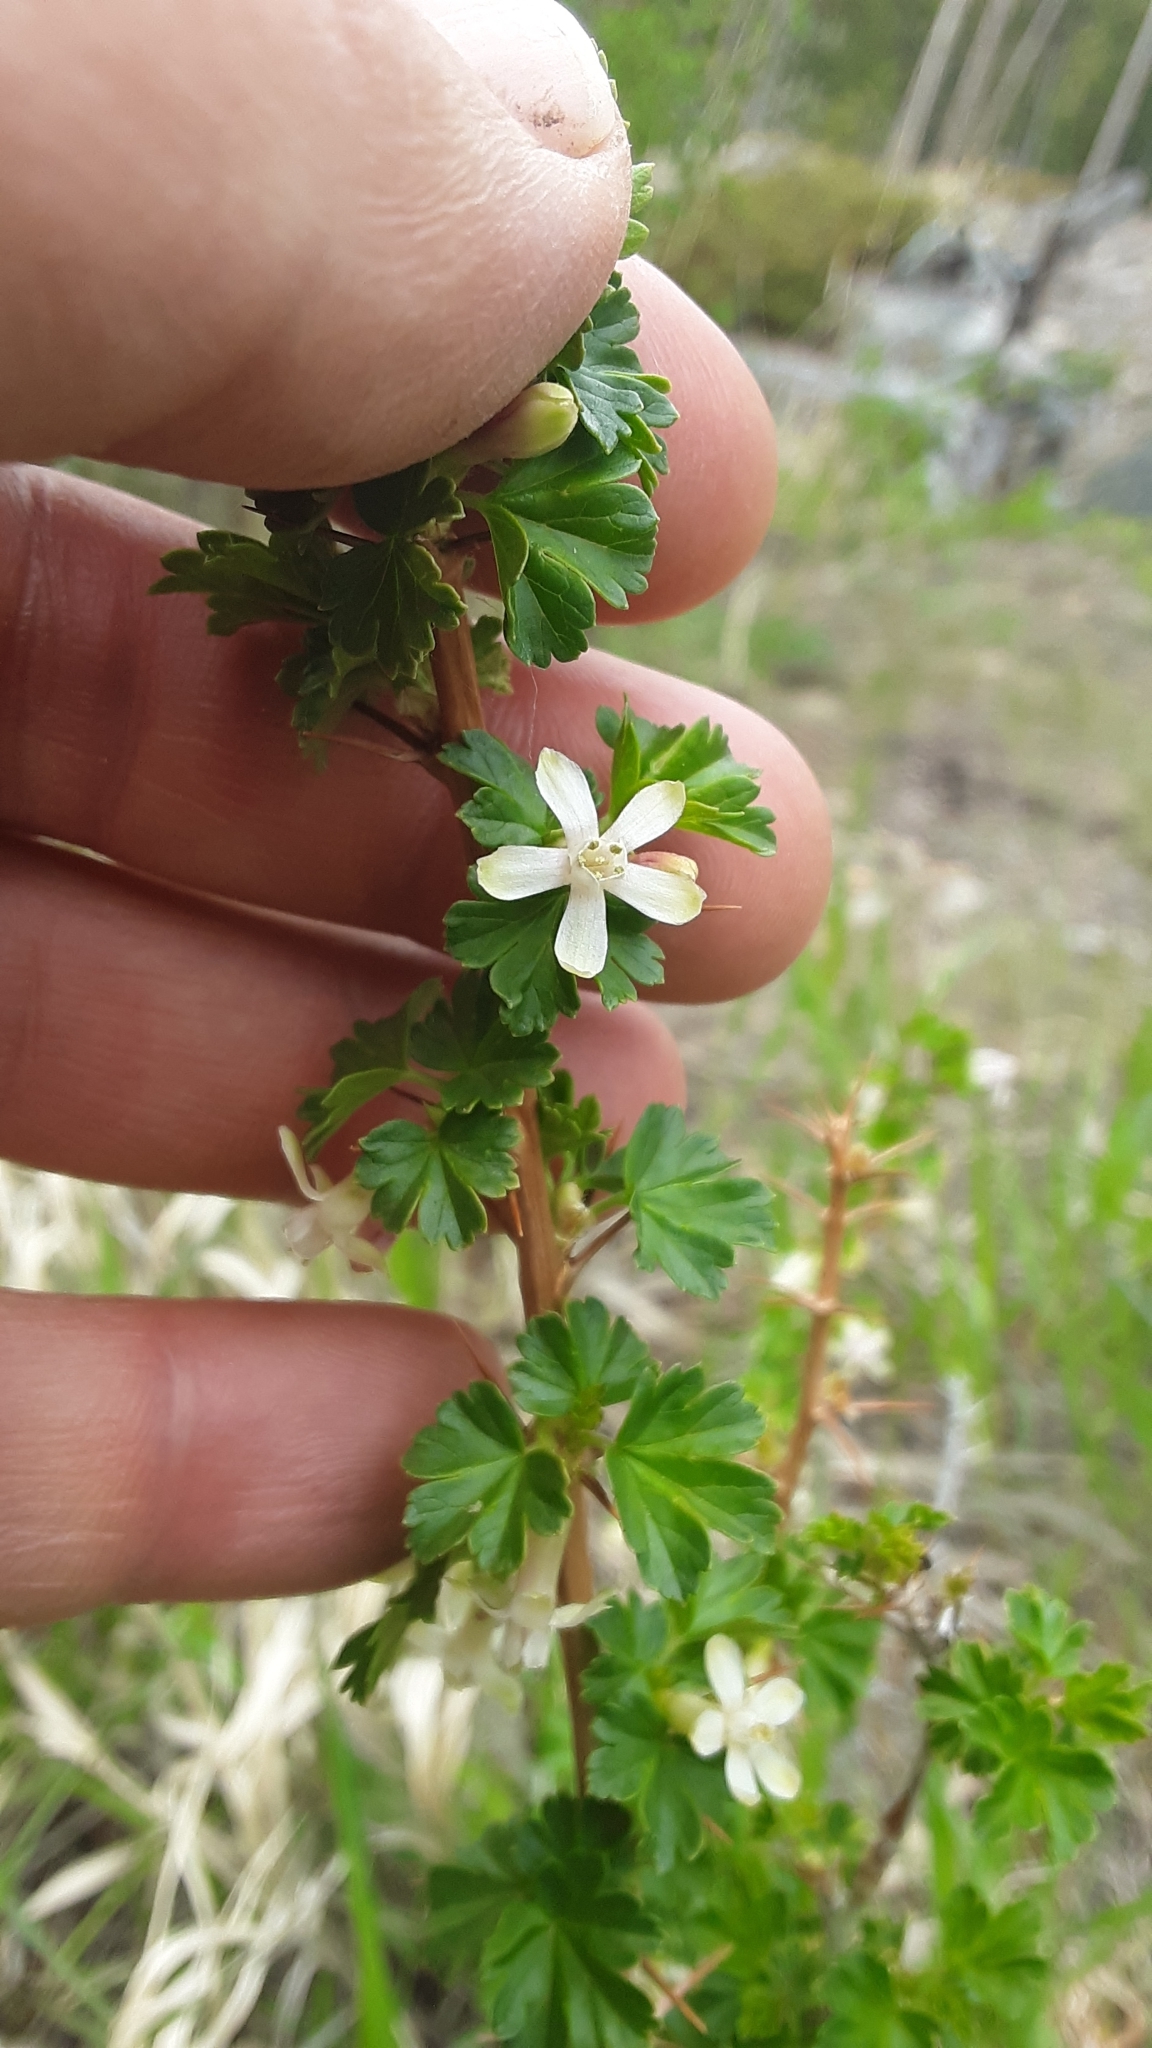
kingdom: Plantae
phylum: Tracheophyta
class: Magnoliopsida
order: Saxifragales
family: Grossulariaceae
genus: Ribes
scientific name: Ribes oxyacanthoides
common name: Northern gooseberry
